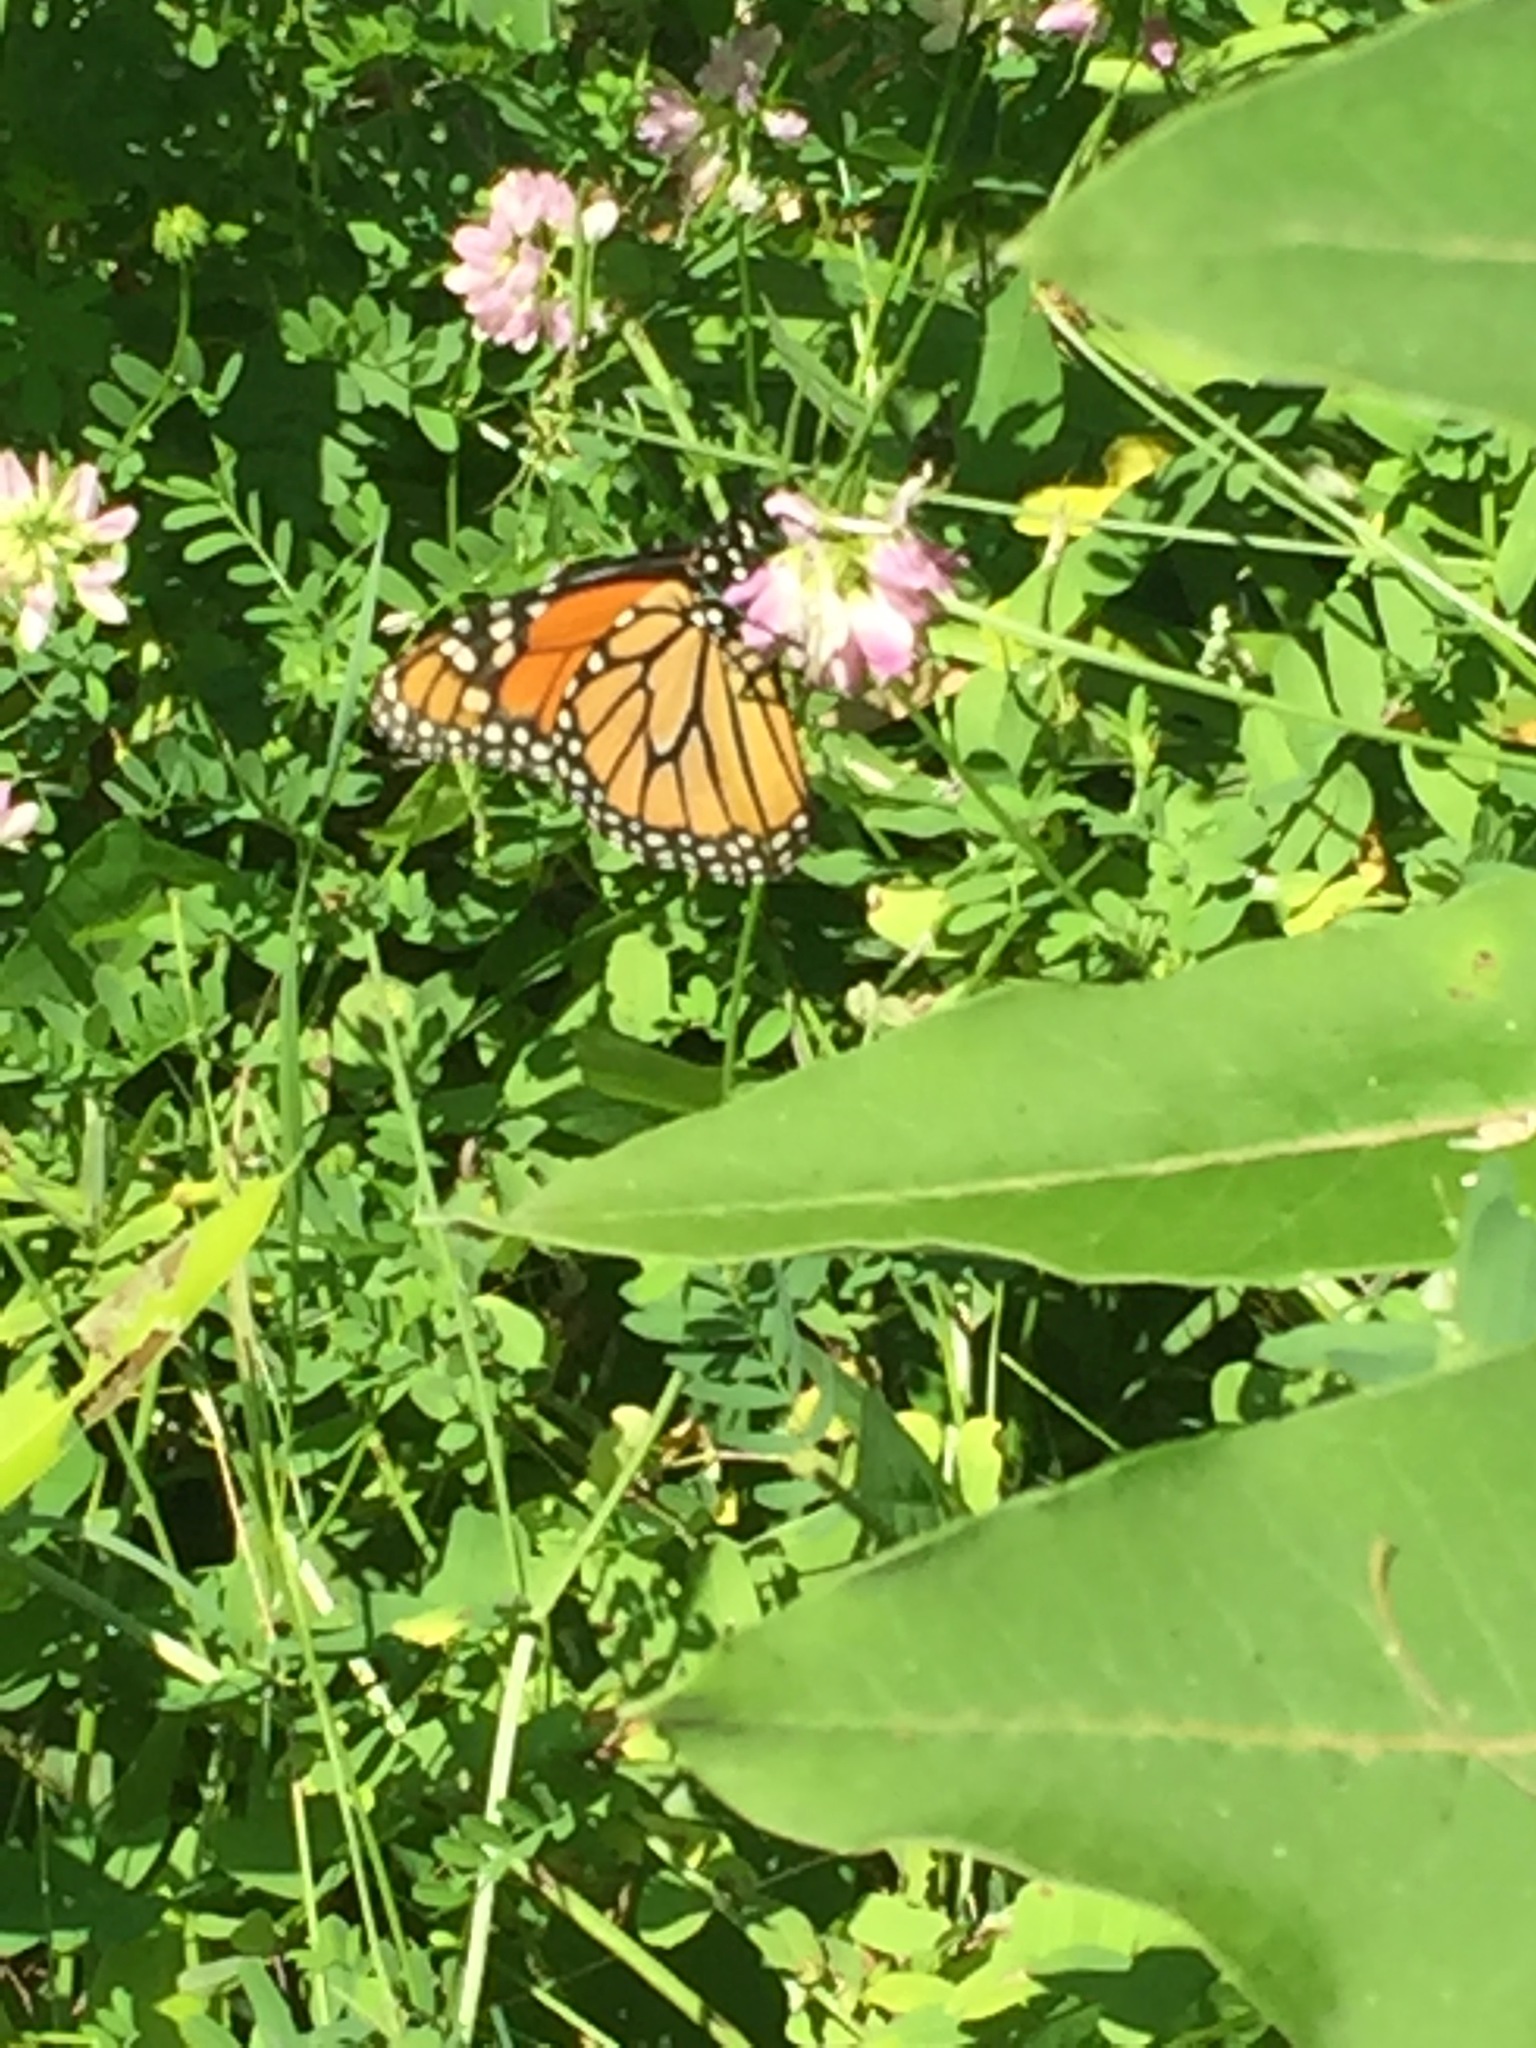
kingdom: Animalia
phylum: Arthropoda
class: Insecta
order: Lepidoptera
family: Nymphalidae
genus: Danaus
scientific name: Danaus plexippus
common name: Monarch
